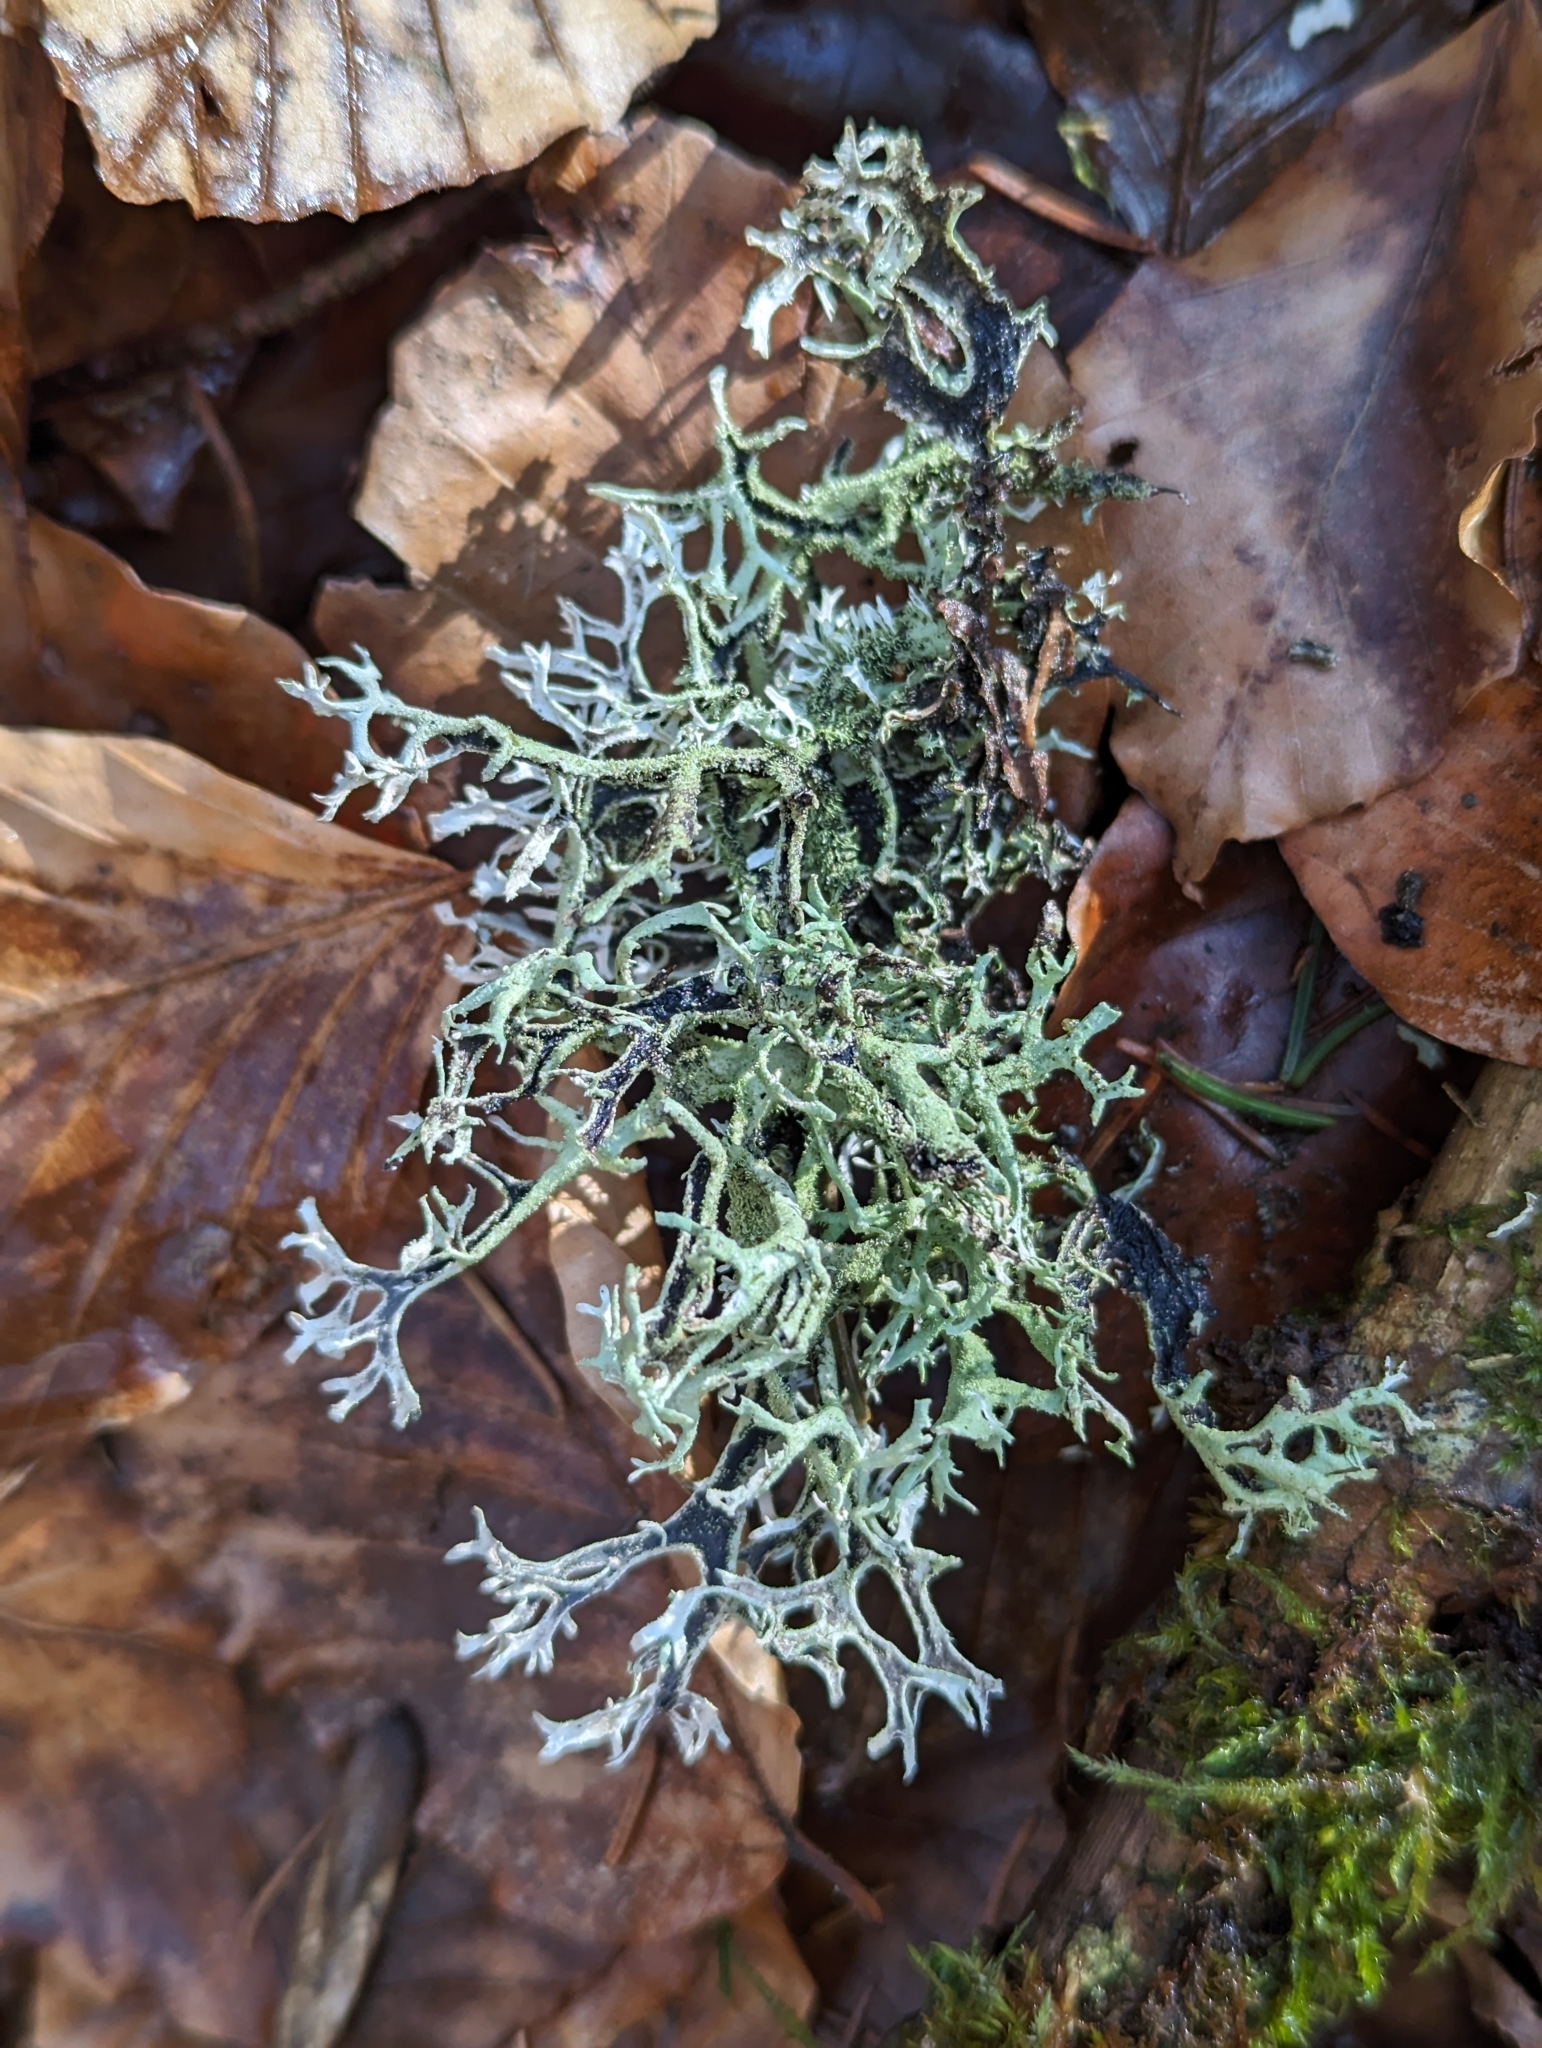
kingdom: Fungi
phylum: Ascomycota
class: Lecanoromycetes
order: Lecanorales
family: Parmeliaceae
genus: Pseudevernia
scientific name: Pseudevernia furfuracea
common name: Tree moss
